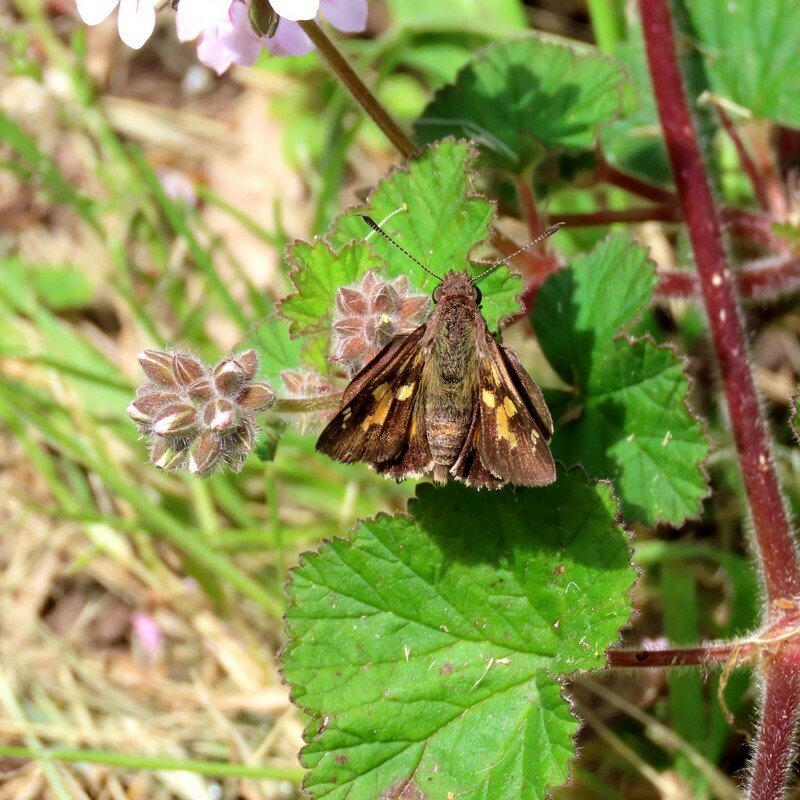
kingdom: Animalia
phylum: Arthropoda
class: Insecta
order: Lepidoptera
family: Hesperiidae
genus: Trapezites
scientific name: Trapezites phigalioides
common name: Montane ochre
